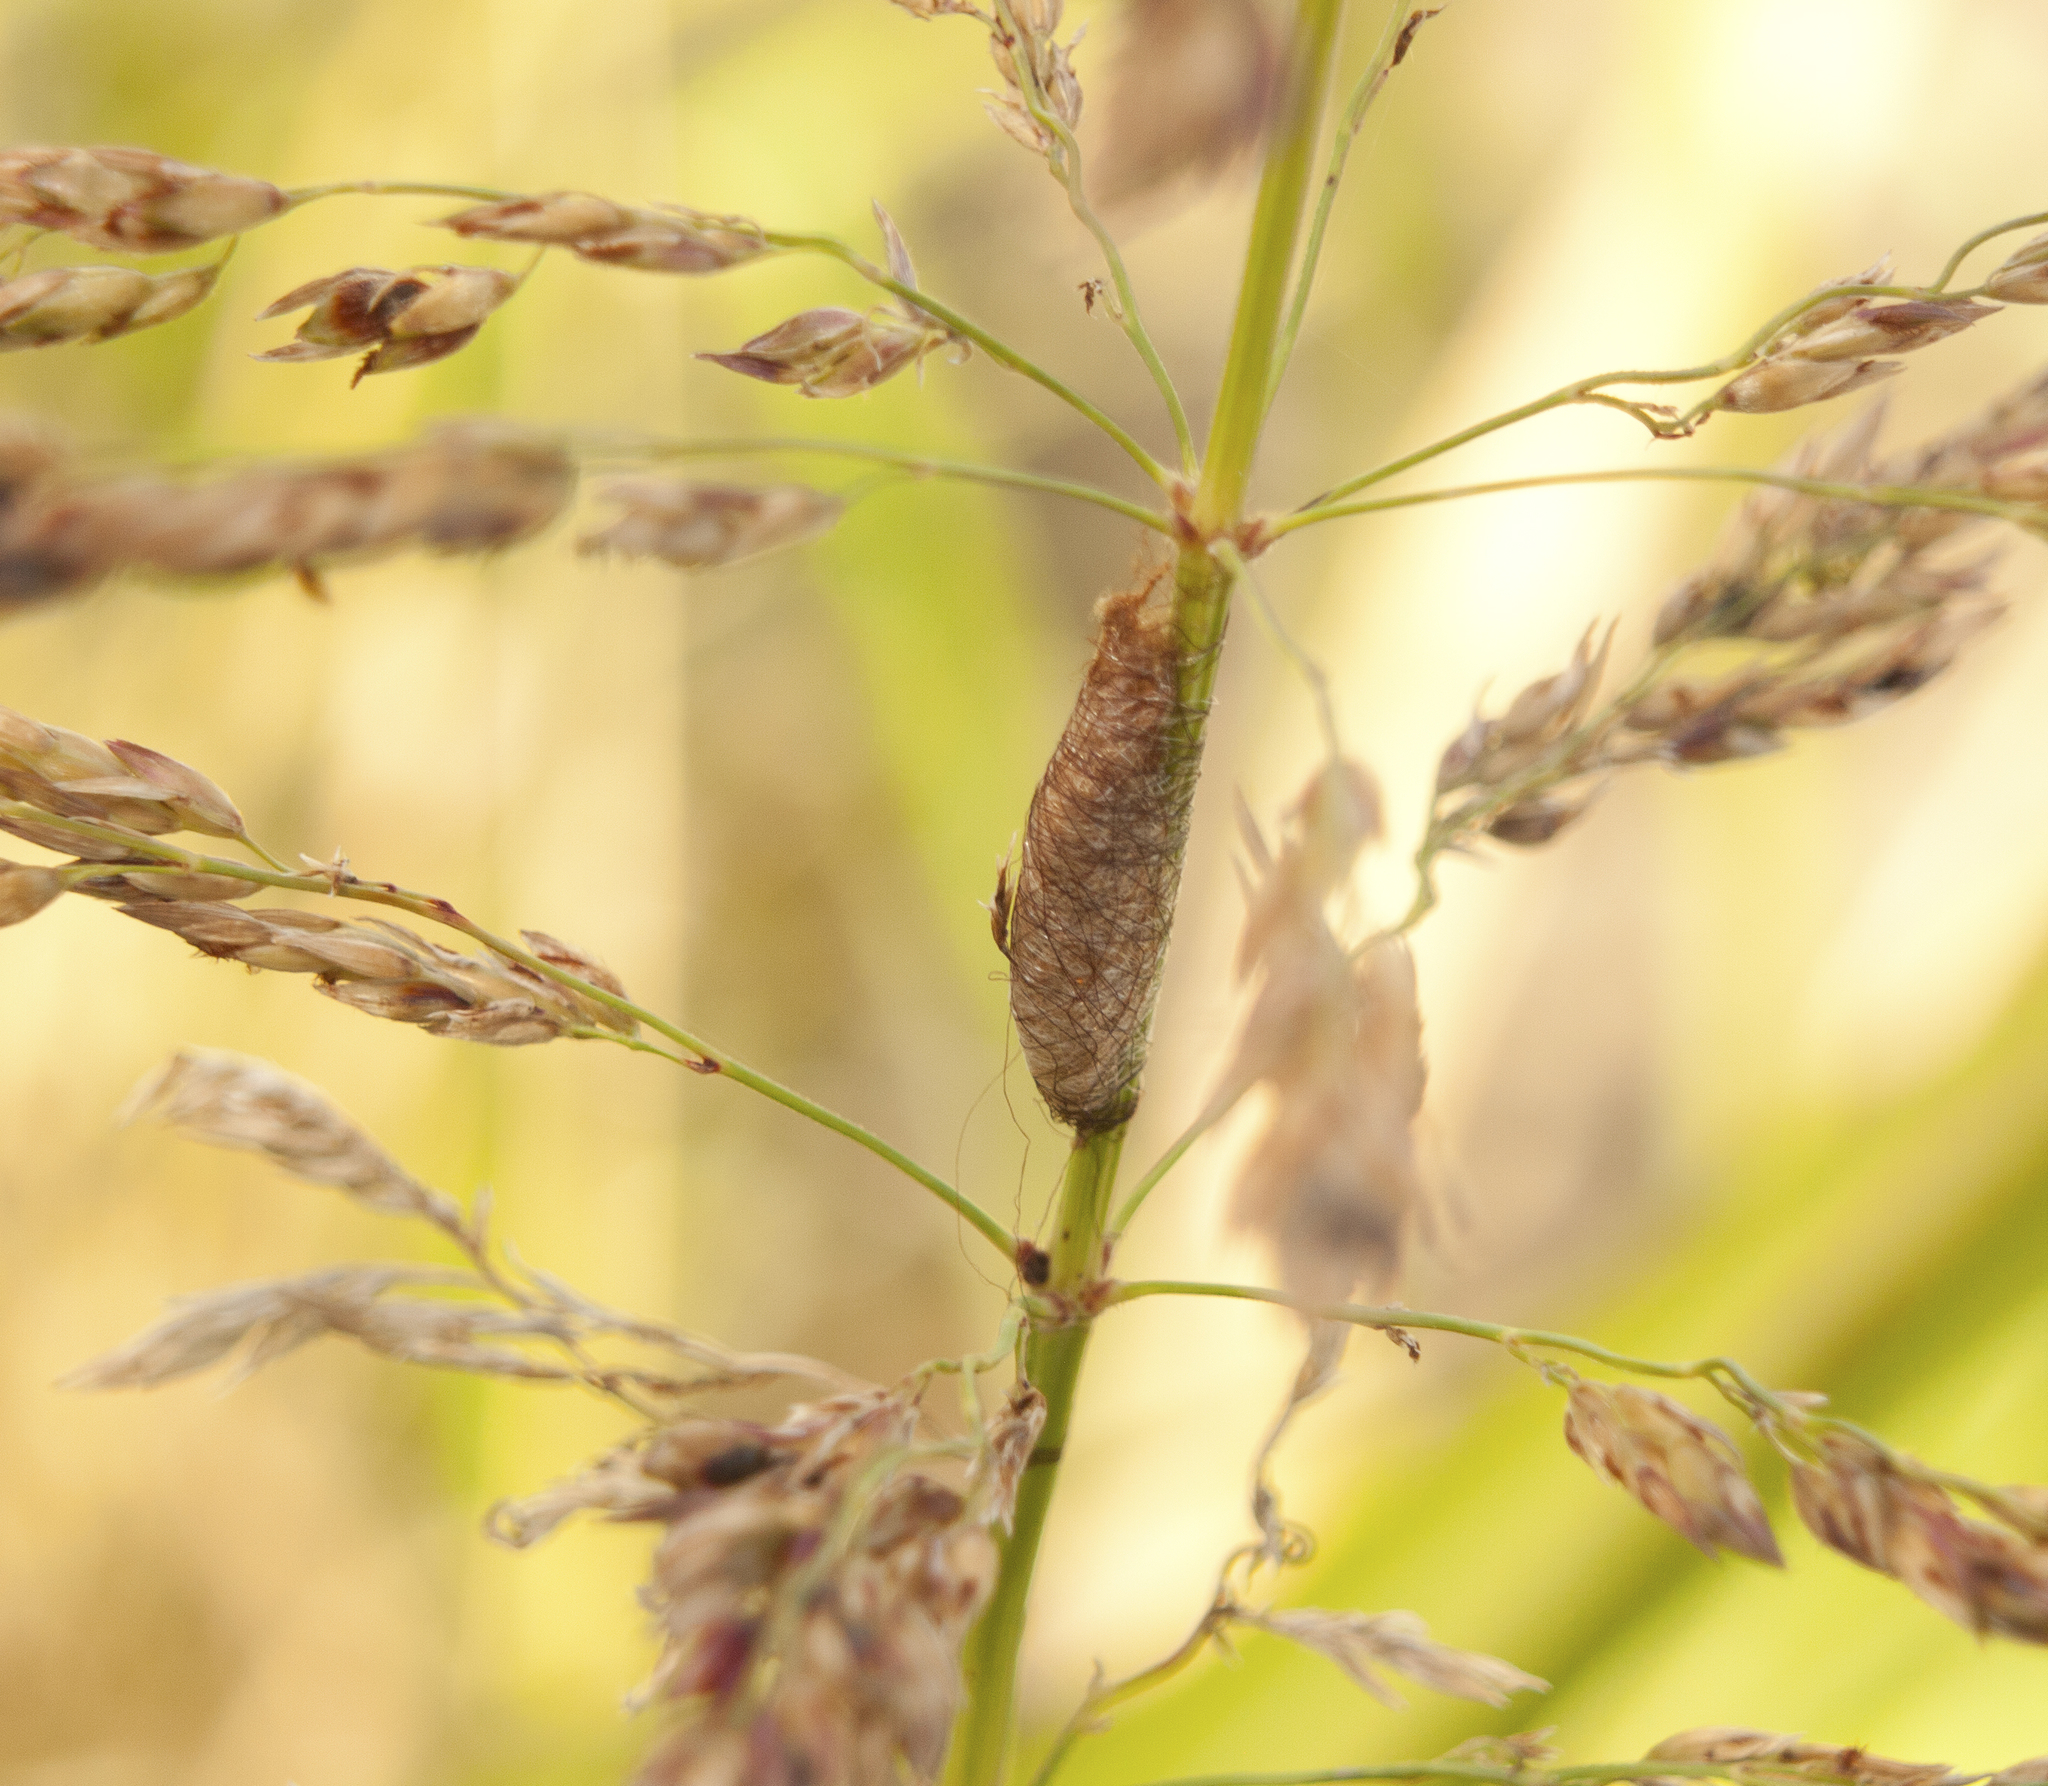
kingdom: Animalia
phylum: Arthropoda
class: Arachnida
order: Araneae
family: Araneidae
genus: Austracantha
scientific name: Austracantha minax
